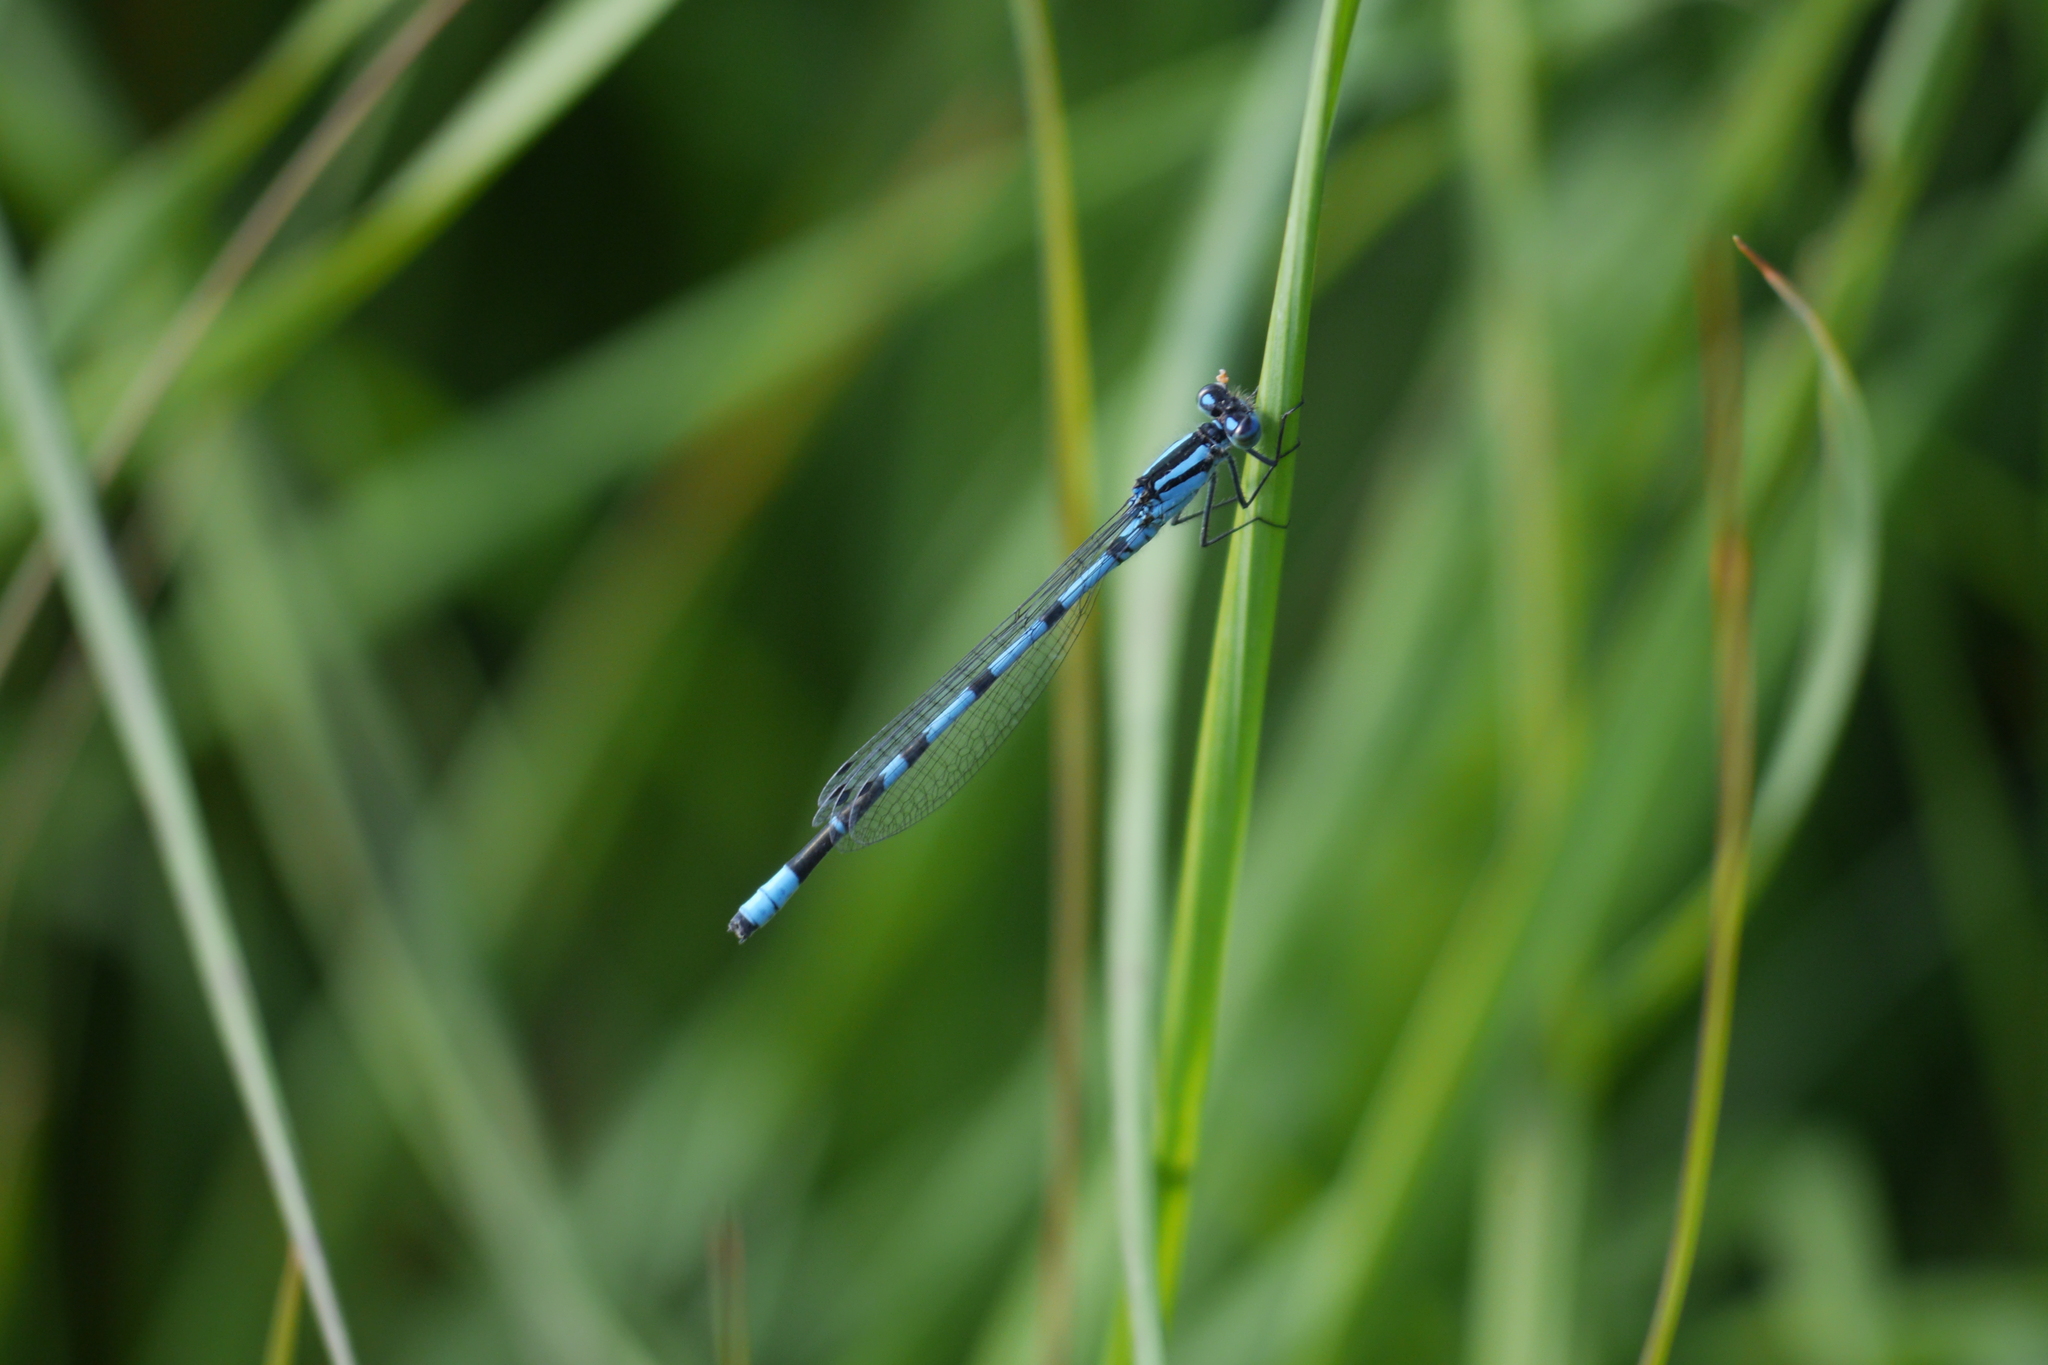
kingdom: Animalia
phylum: Arthropoda
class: Insecta
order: Odonata
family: Coenagrionidae
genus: Enallagma
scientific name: Enallagma cyathigerum
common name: Common blue damselfly
